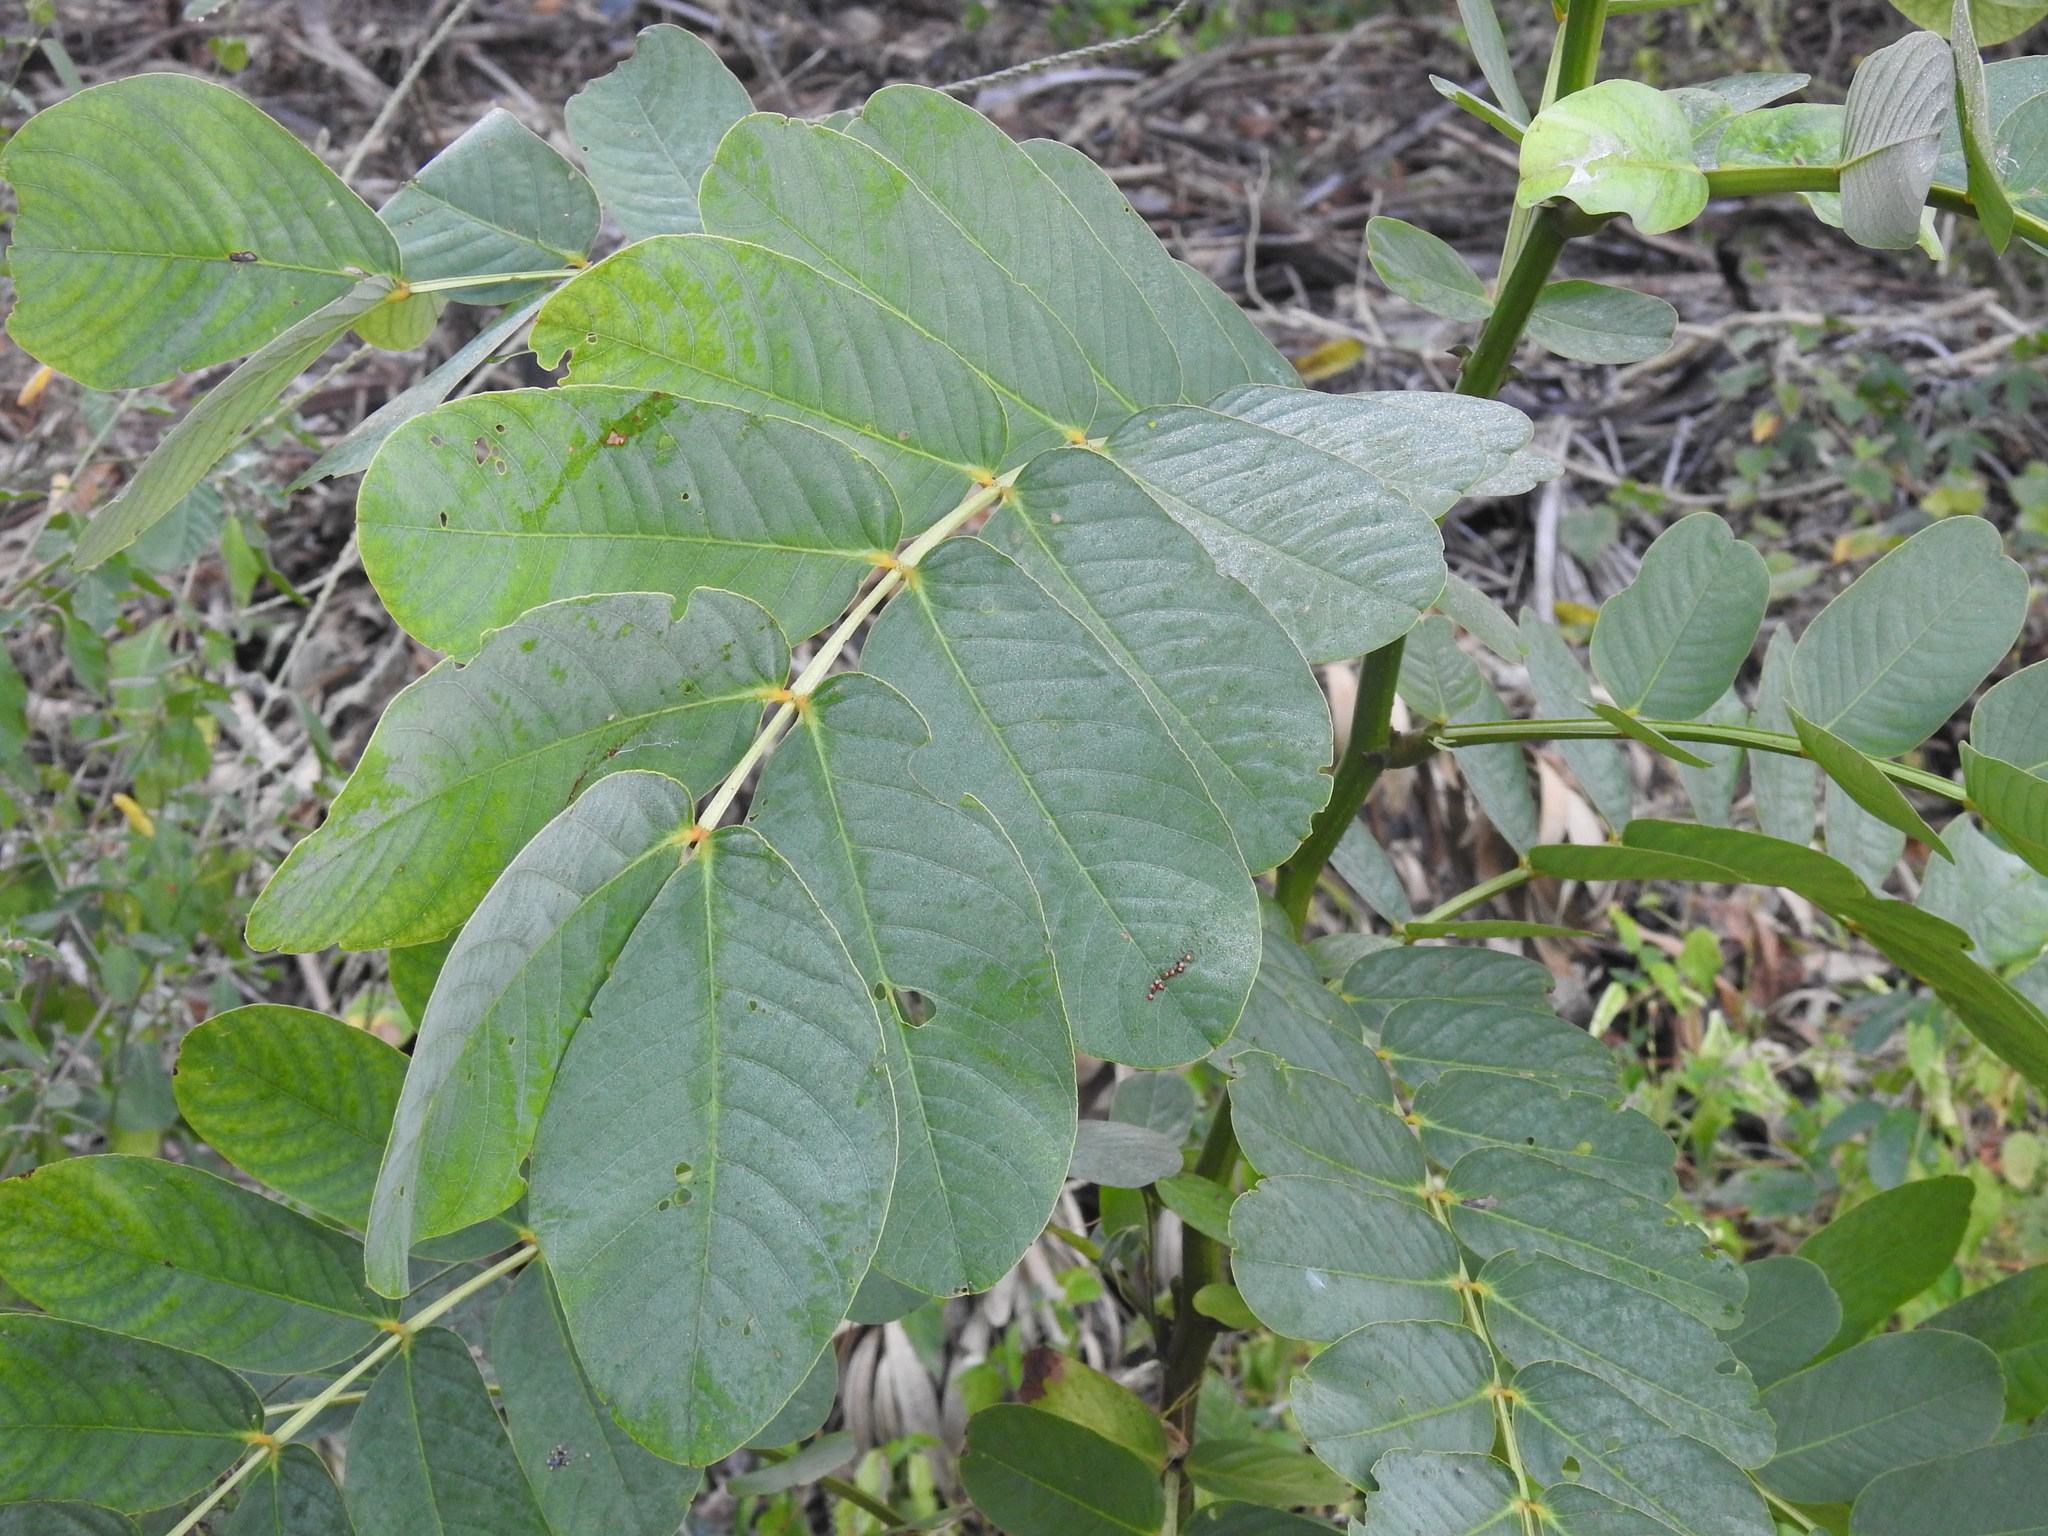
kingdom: Plantae
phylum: Tracheophyta
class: Magnoliopsida
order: Fabales
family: Fabaceae
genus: Senna
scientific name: Senna alata
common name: Emperor's candlesticks
